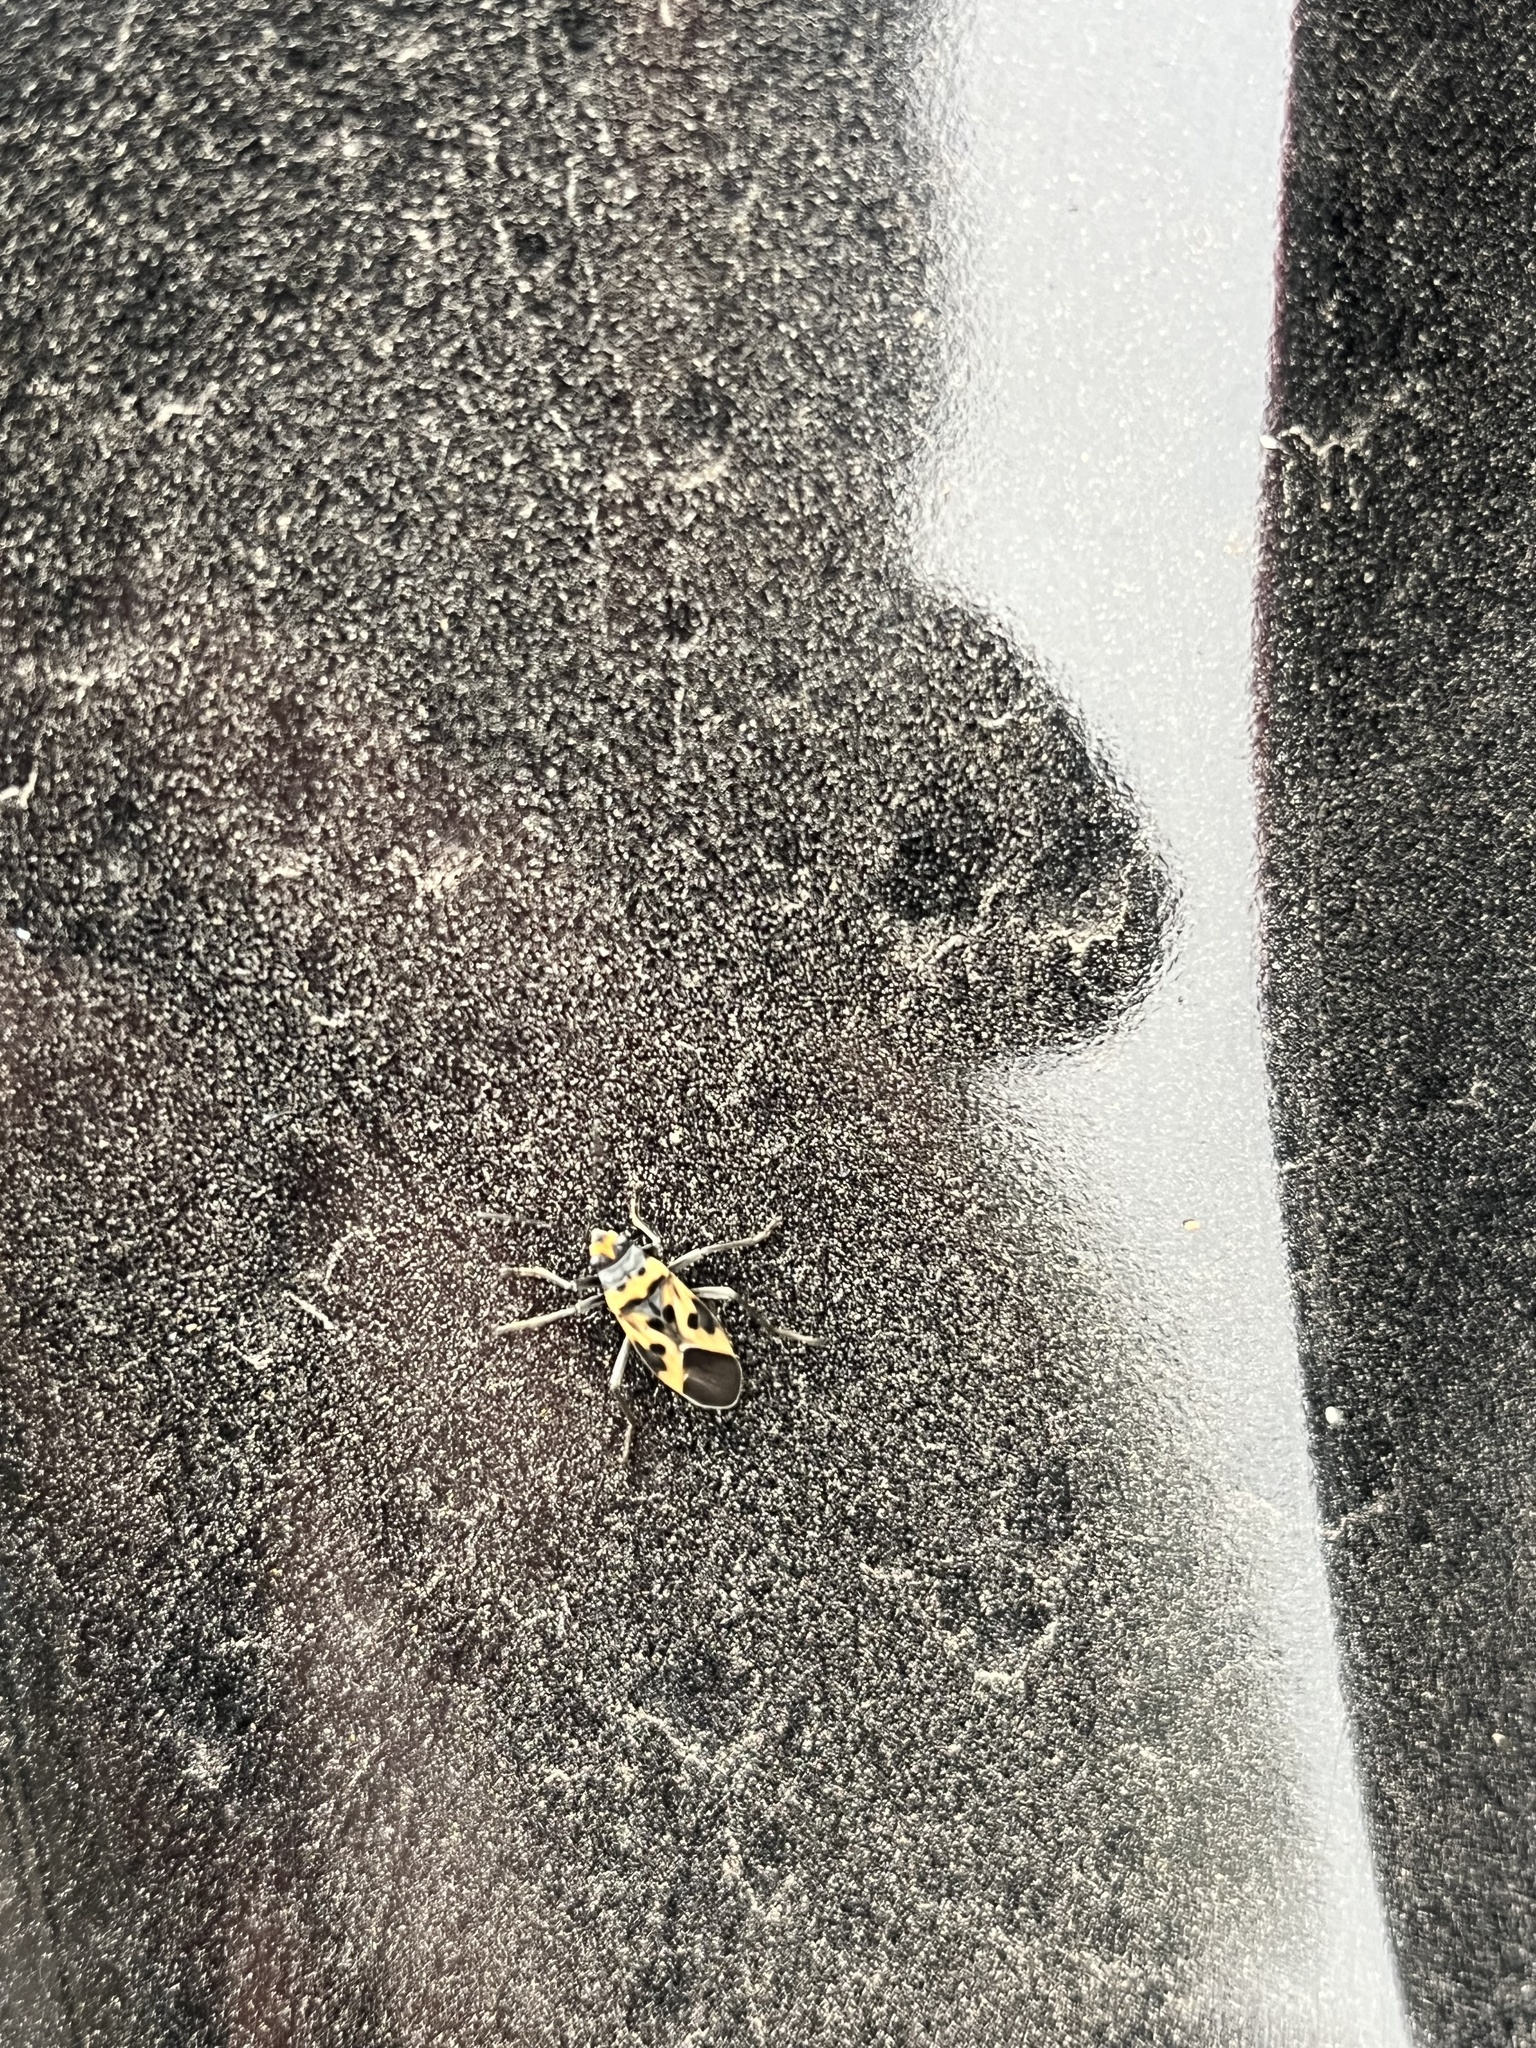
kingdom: Animalia
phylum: Arthropoda
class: Insecta
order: Hemiptera
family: Lygaeidae
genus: Lygaeus
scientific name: Lygaeus ashlocki
